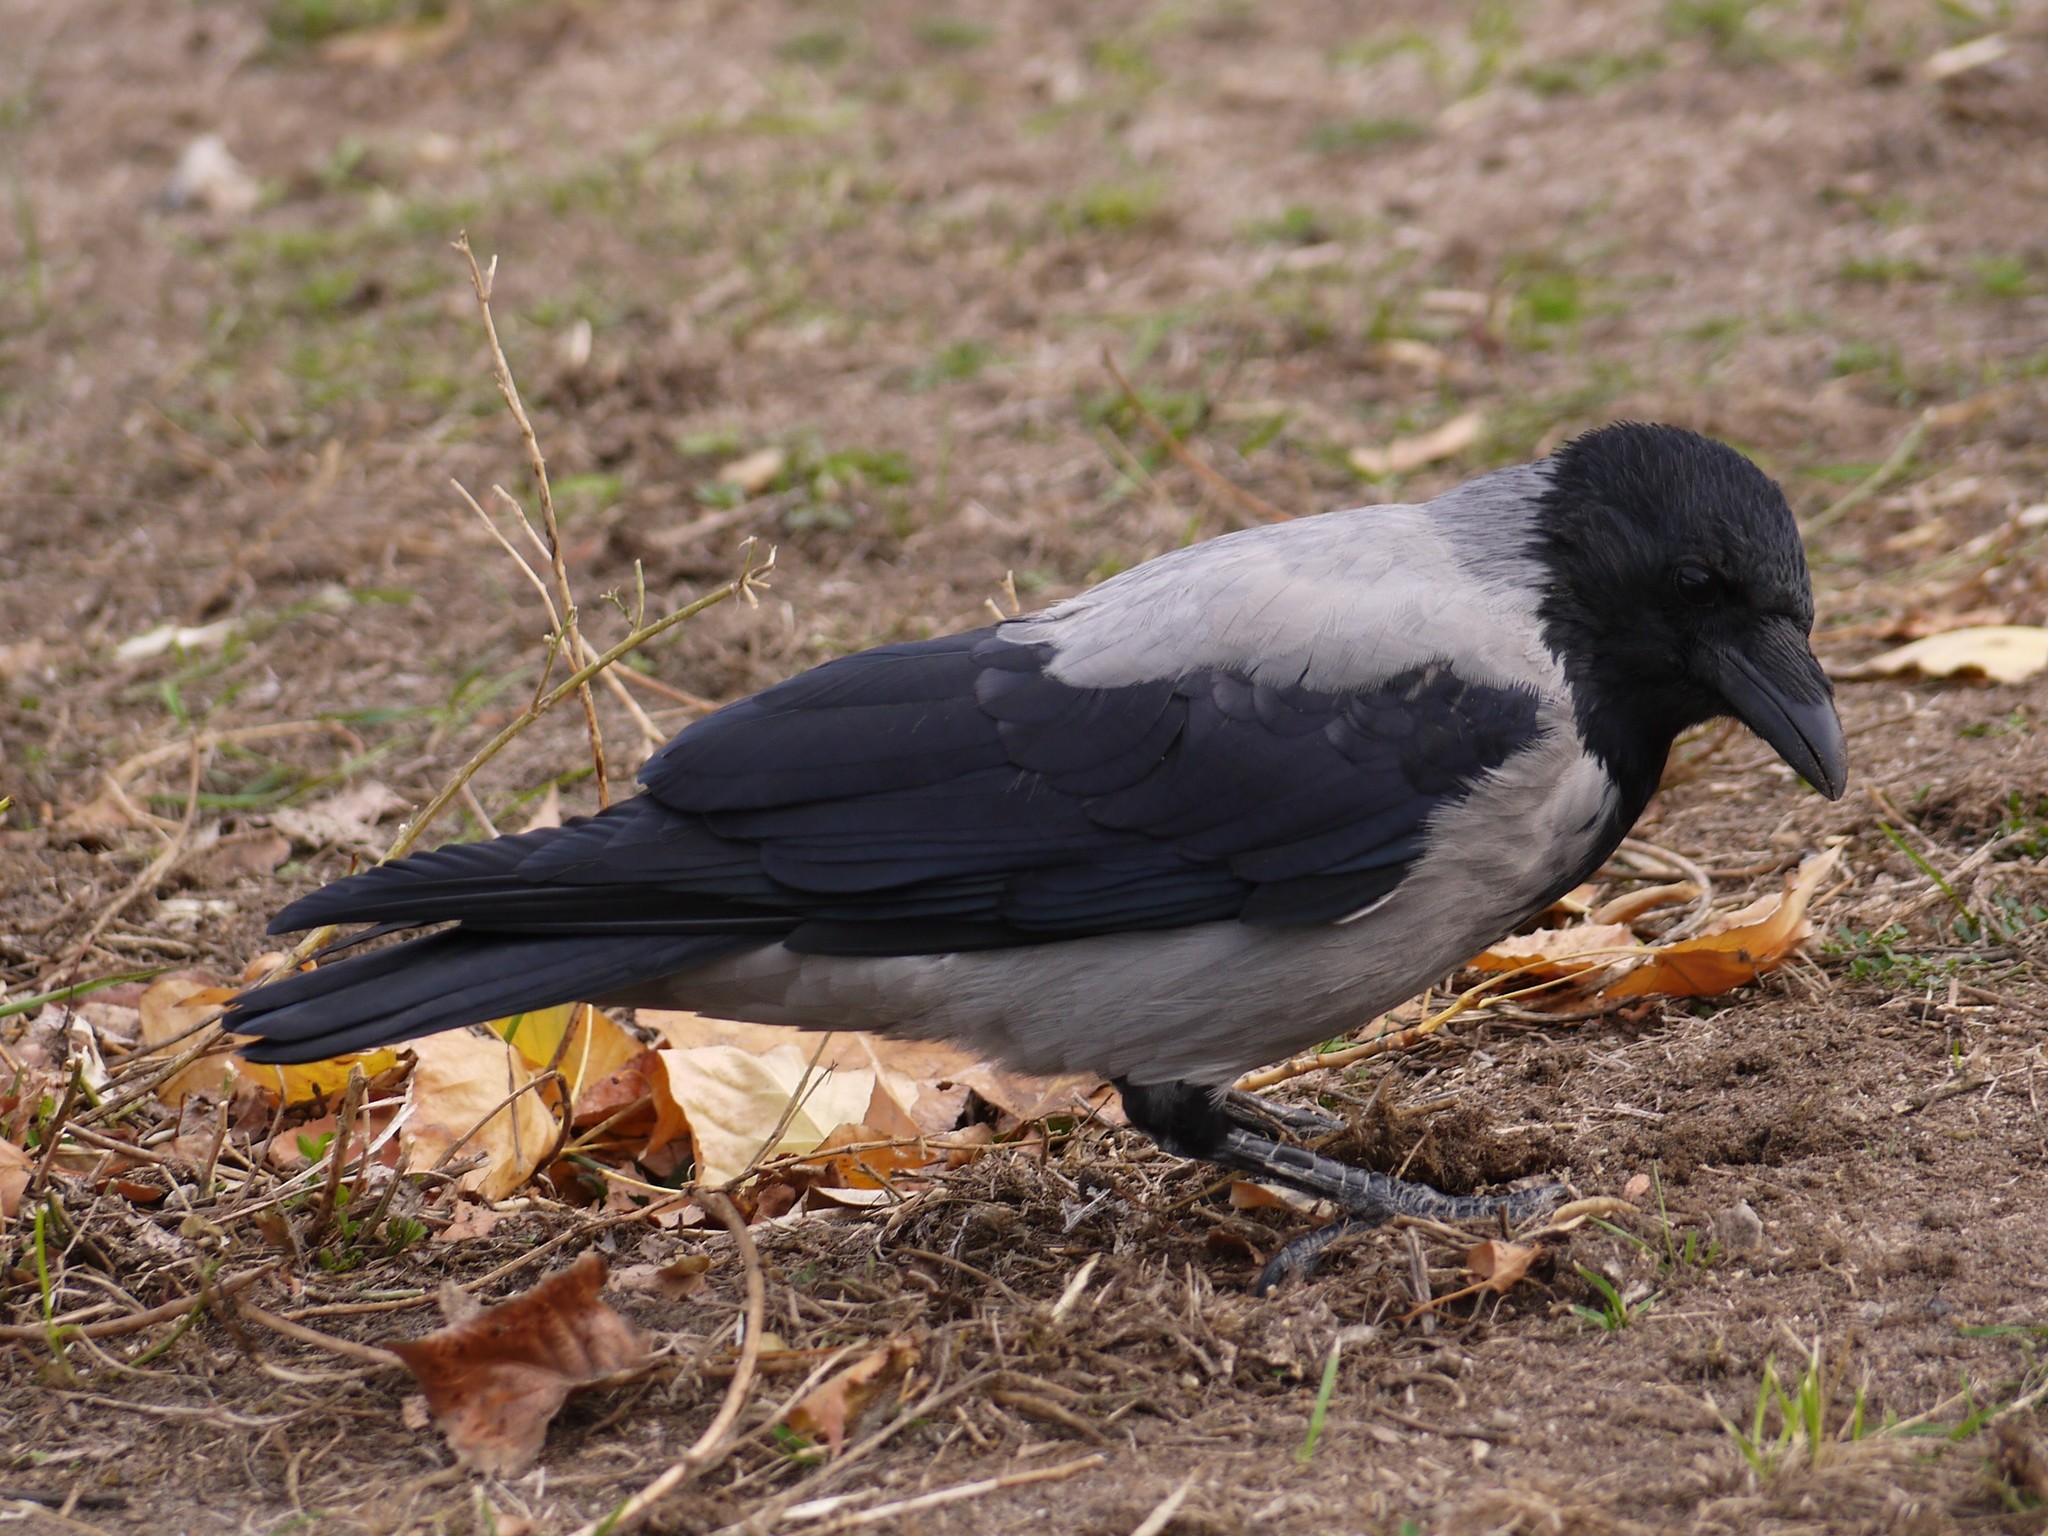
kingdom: Animalia
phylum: Chordata
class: Aves
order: Passeriformes
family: Corvidae
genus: Corvus
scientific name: Corvus cornix
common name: Hooded crow
